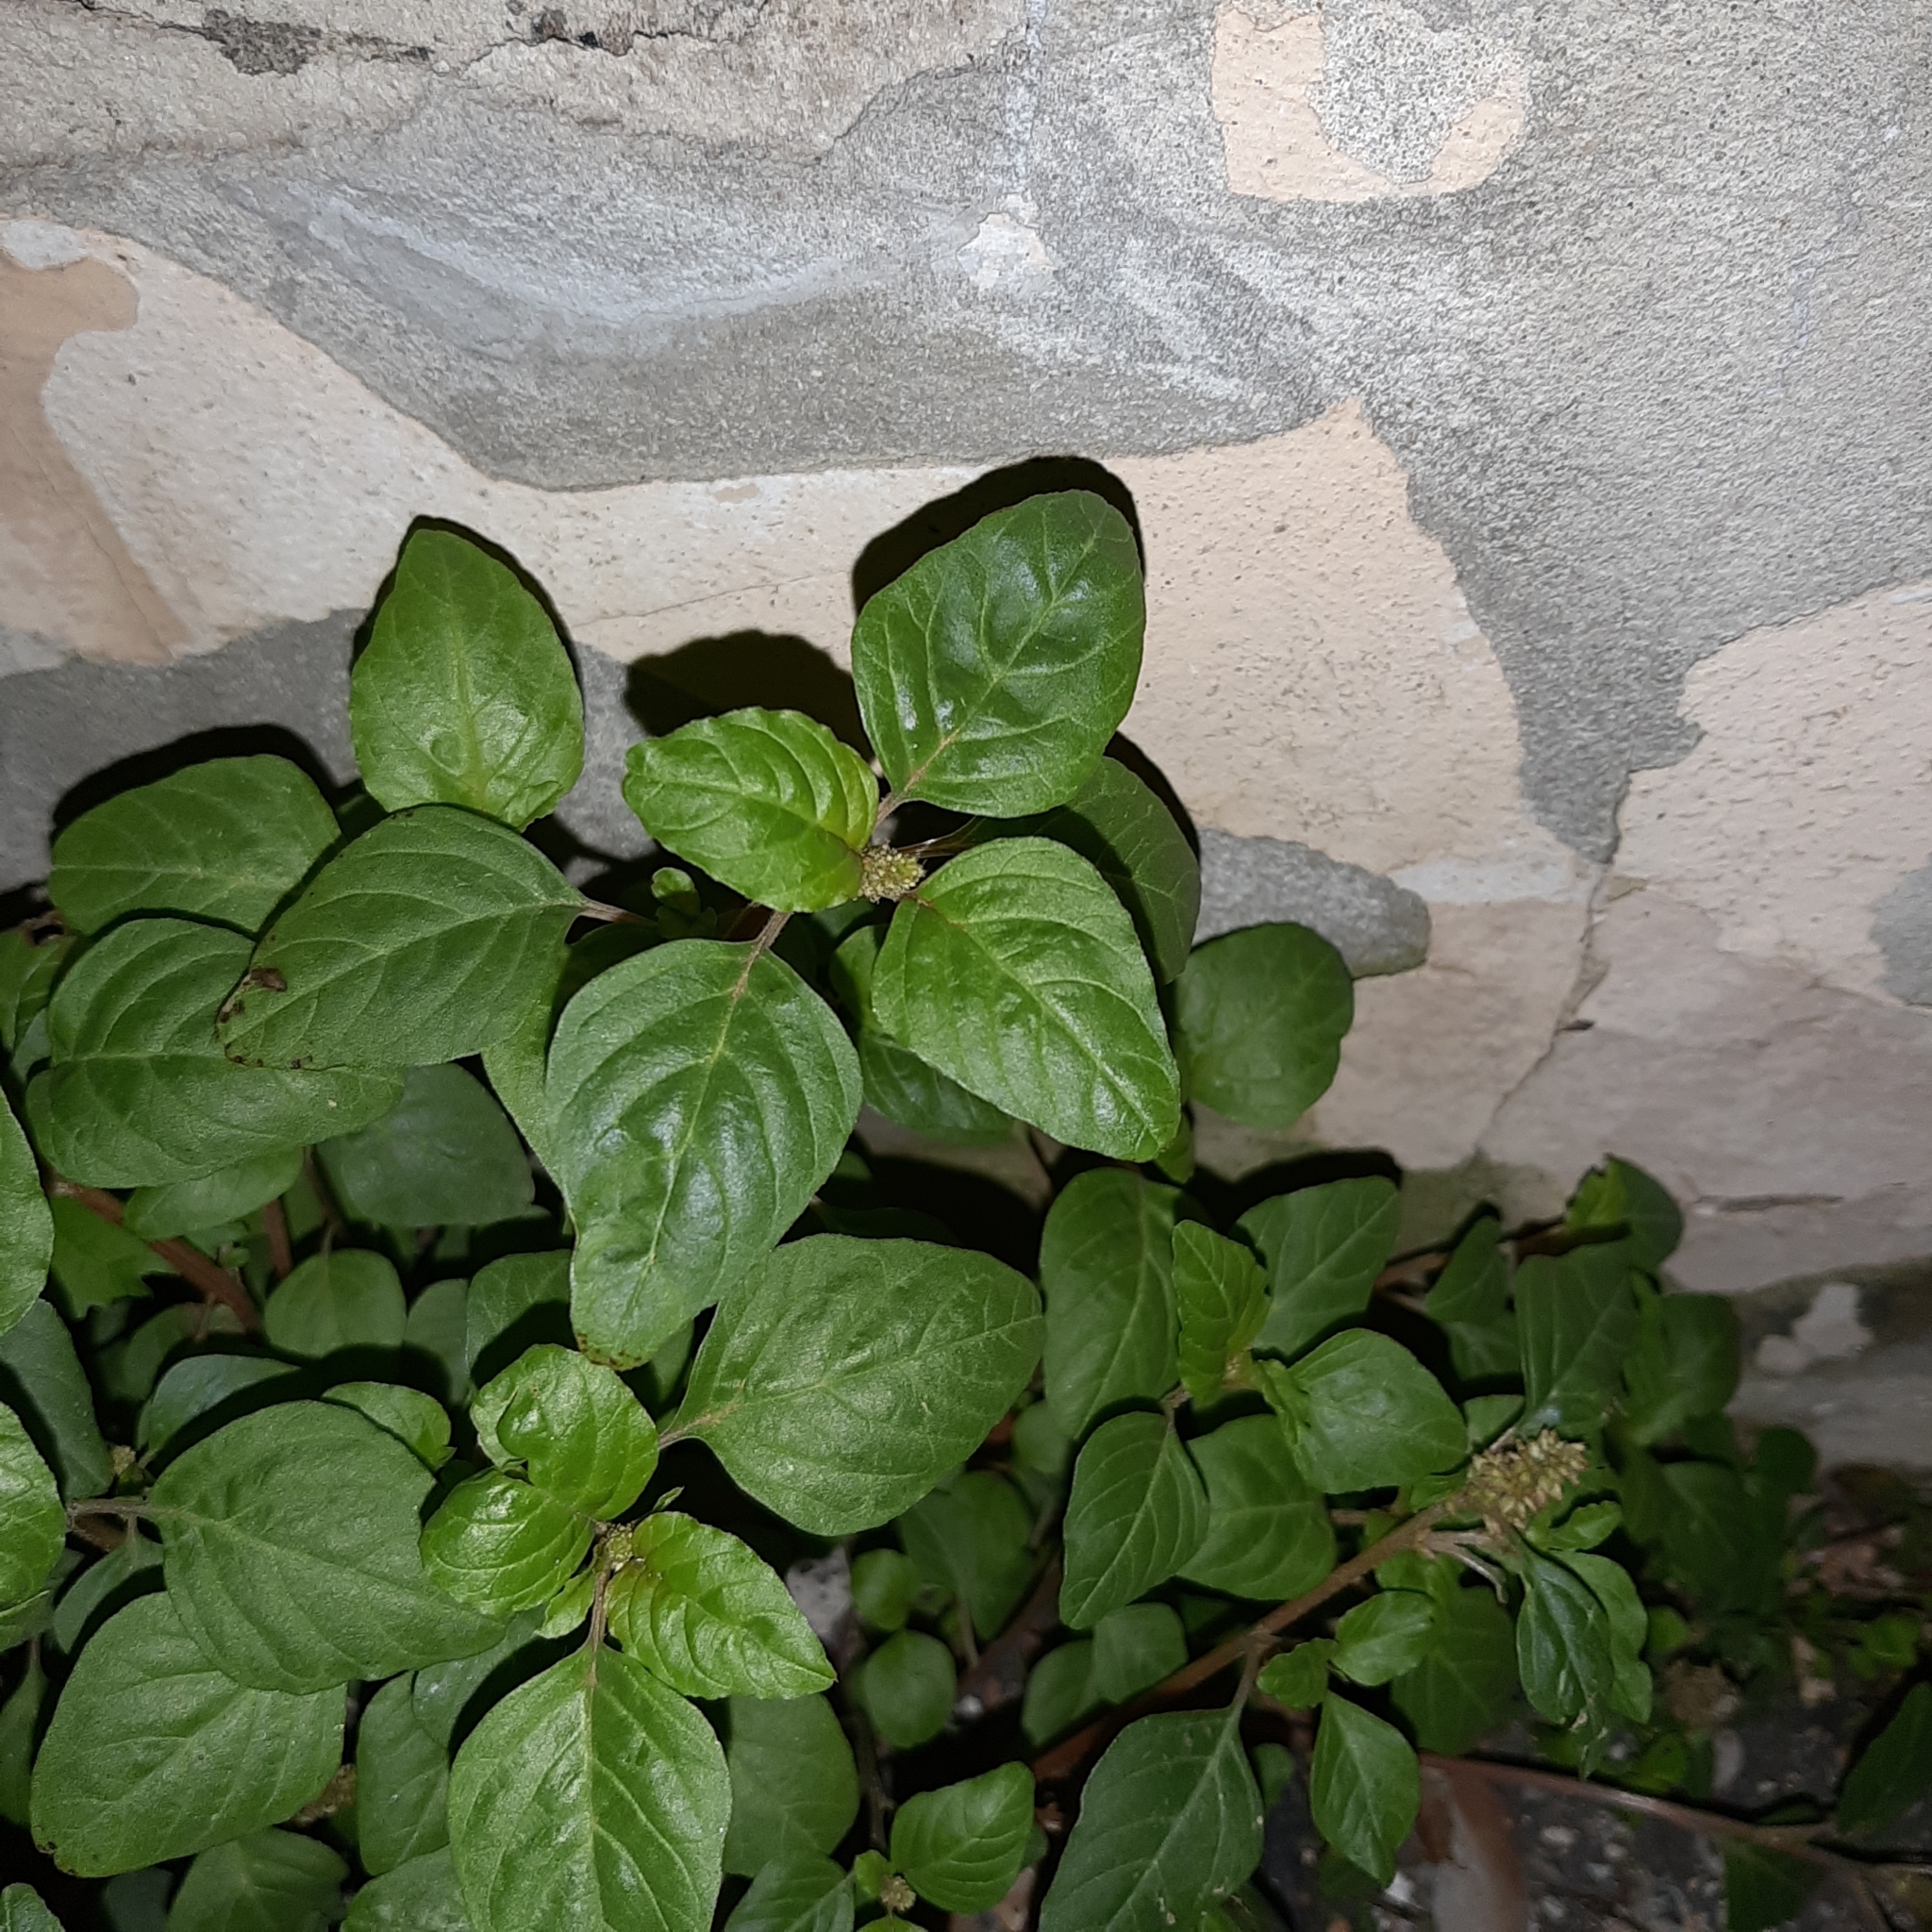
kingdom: Plantae
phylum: Tracheophyta
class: Magnoliopsida
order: Rosales
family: Urticaceae
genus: Parietaria
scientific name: Parietaria judaica
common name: Pellitory-of-the-wall
